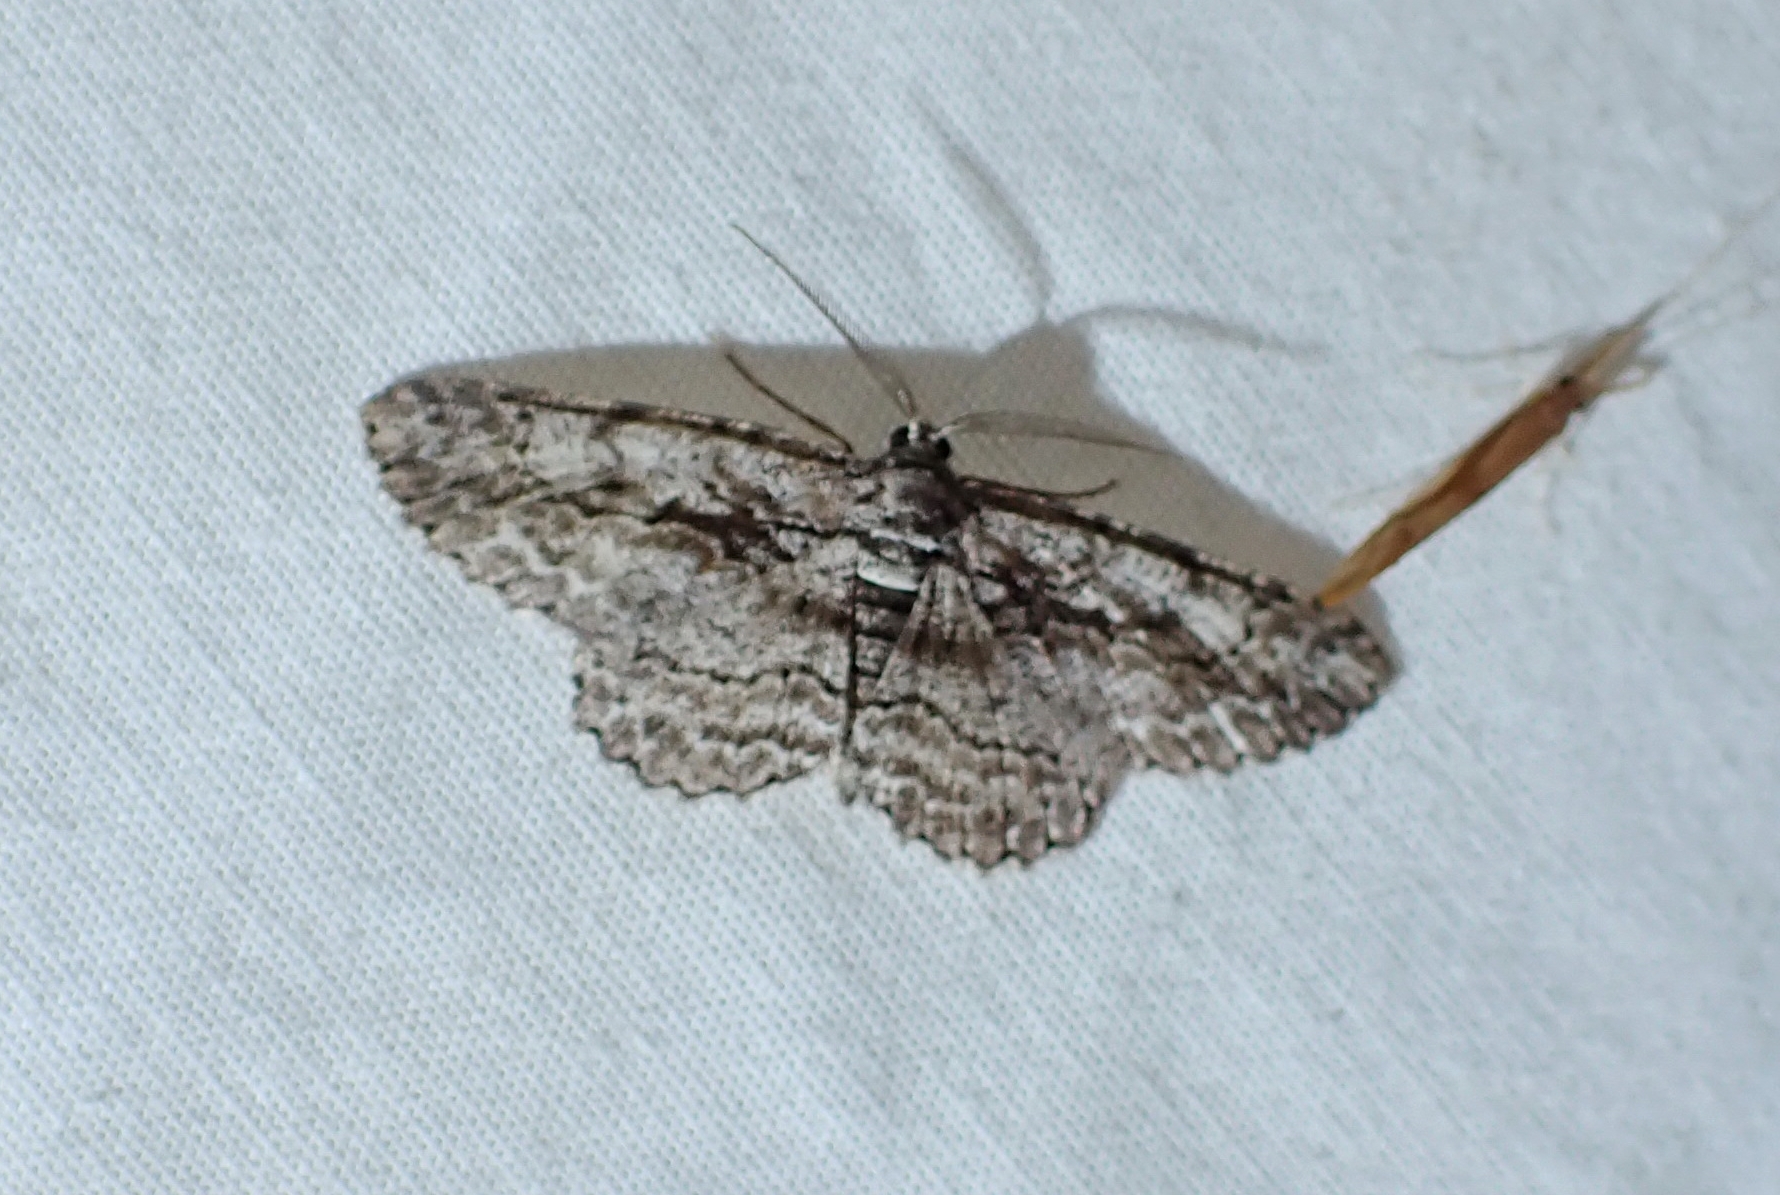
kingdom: Animalia
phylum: Arthropoda
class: Insecta
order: Lepidoptera
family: Geometridae
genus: Anavitrinella
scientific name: Anavitrinella pampinaria
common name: Common gray
